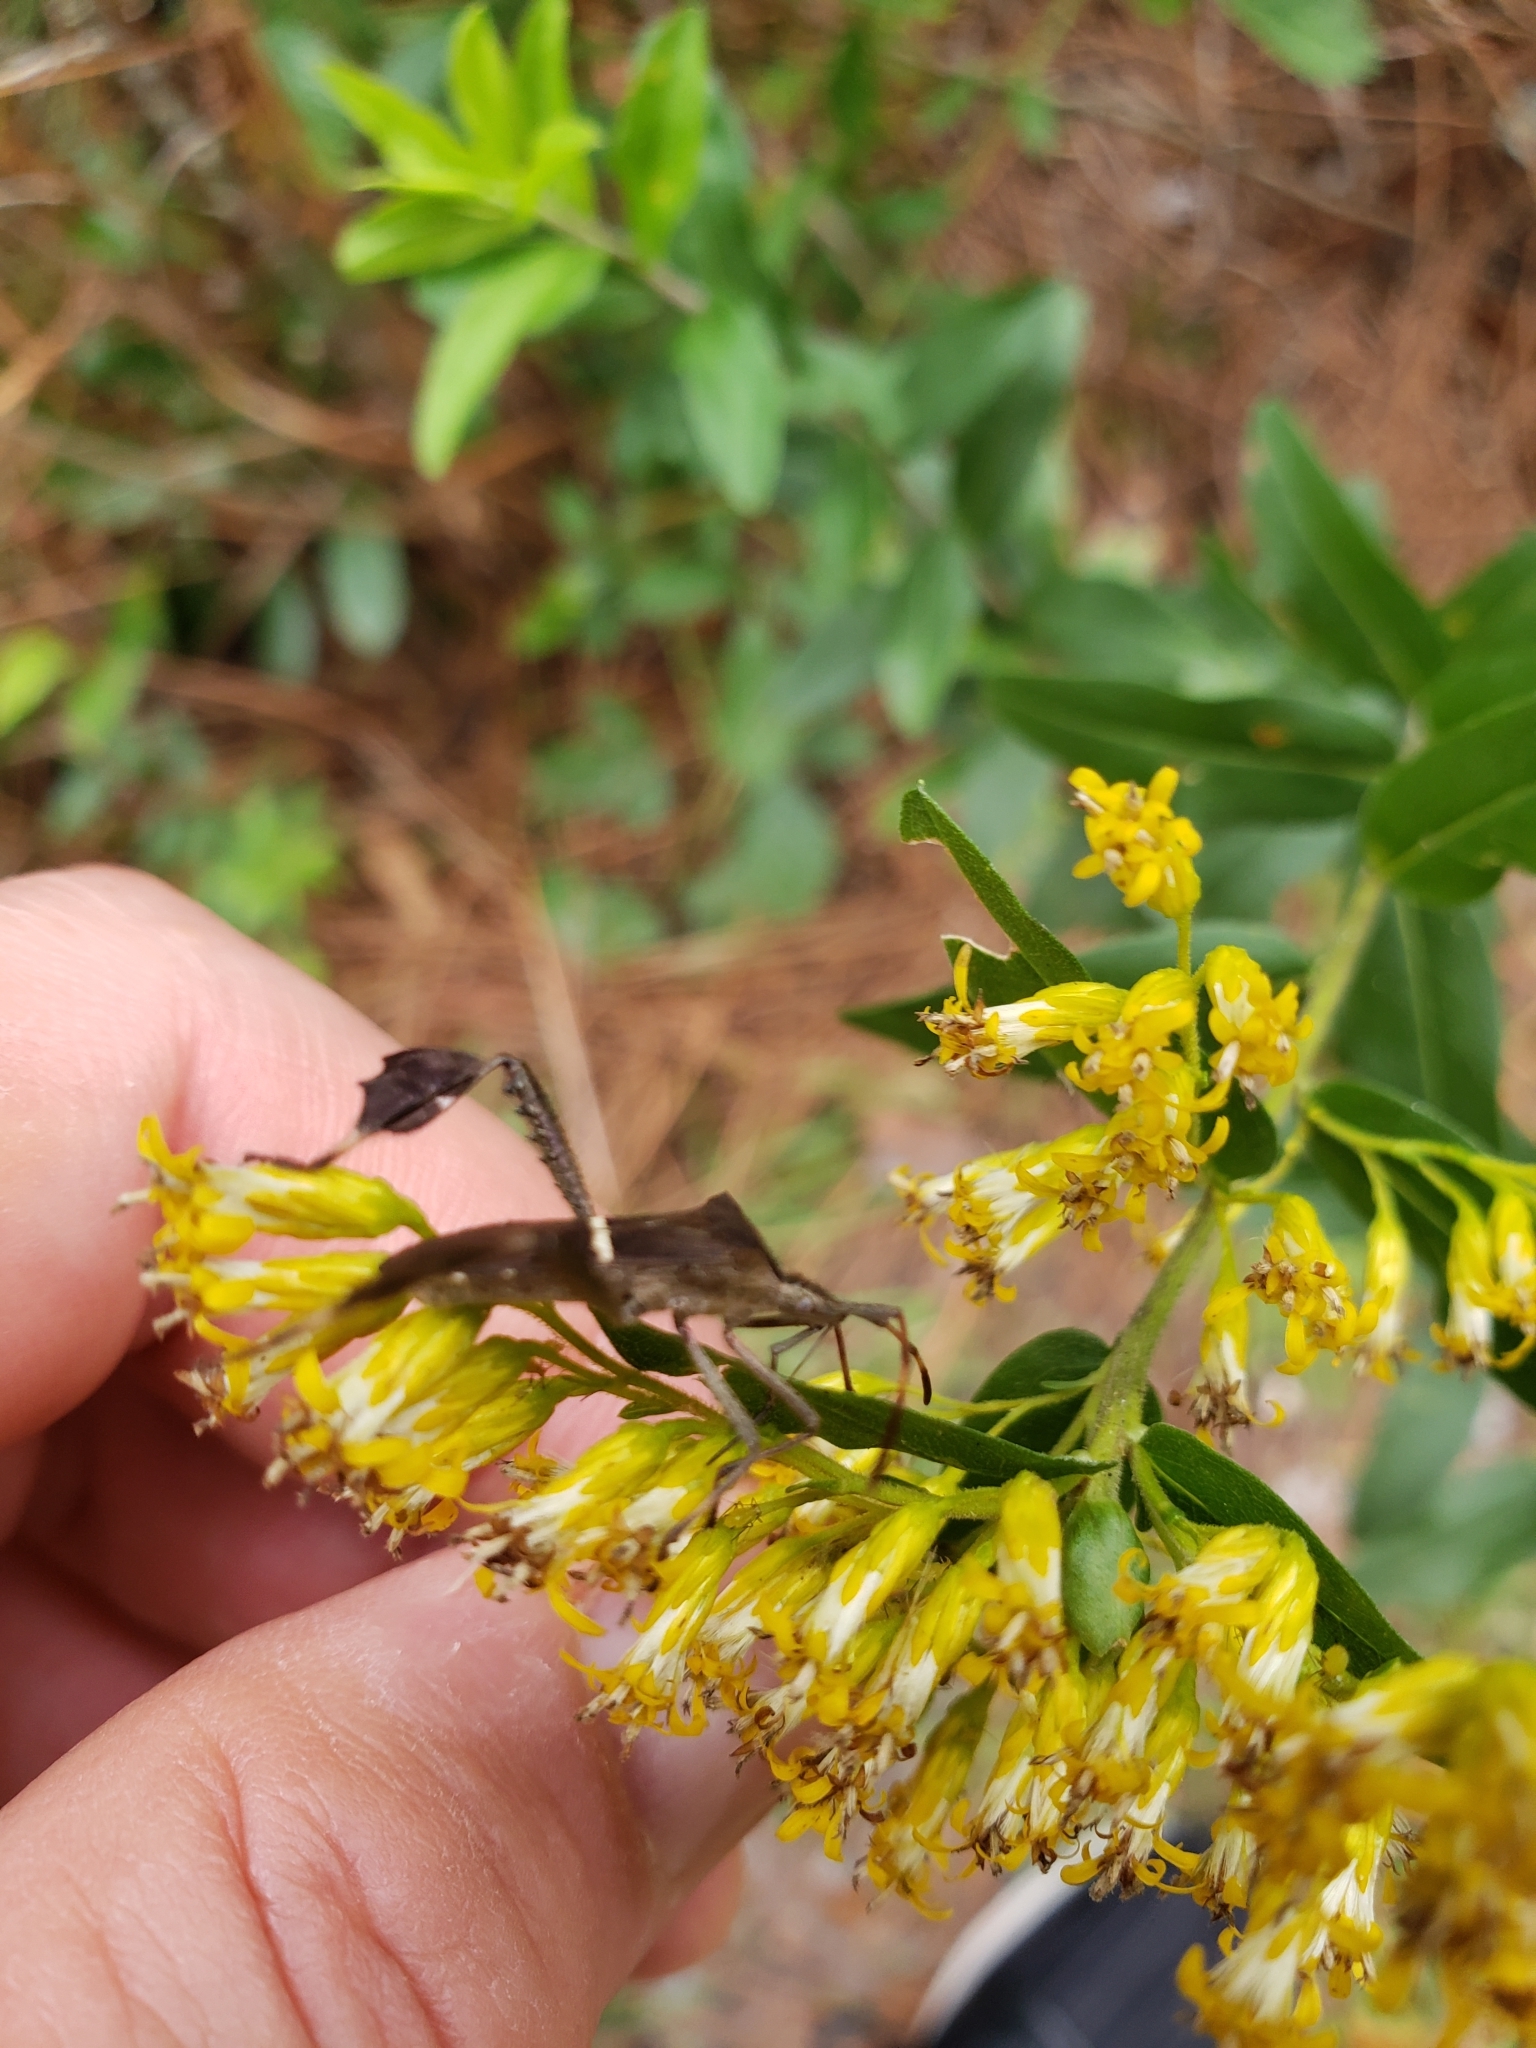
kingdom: Animalia
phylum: Arthropoda
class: Insecta
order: Hemiptera
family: Coreidae
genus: Leptoglossus
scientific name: Leptoglossus phyllopus
